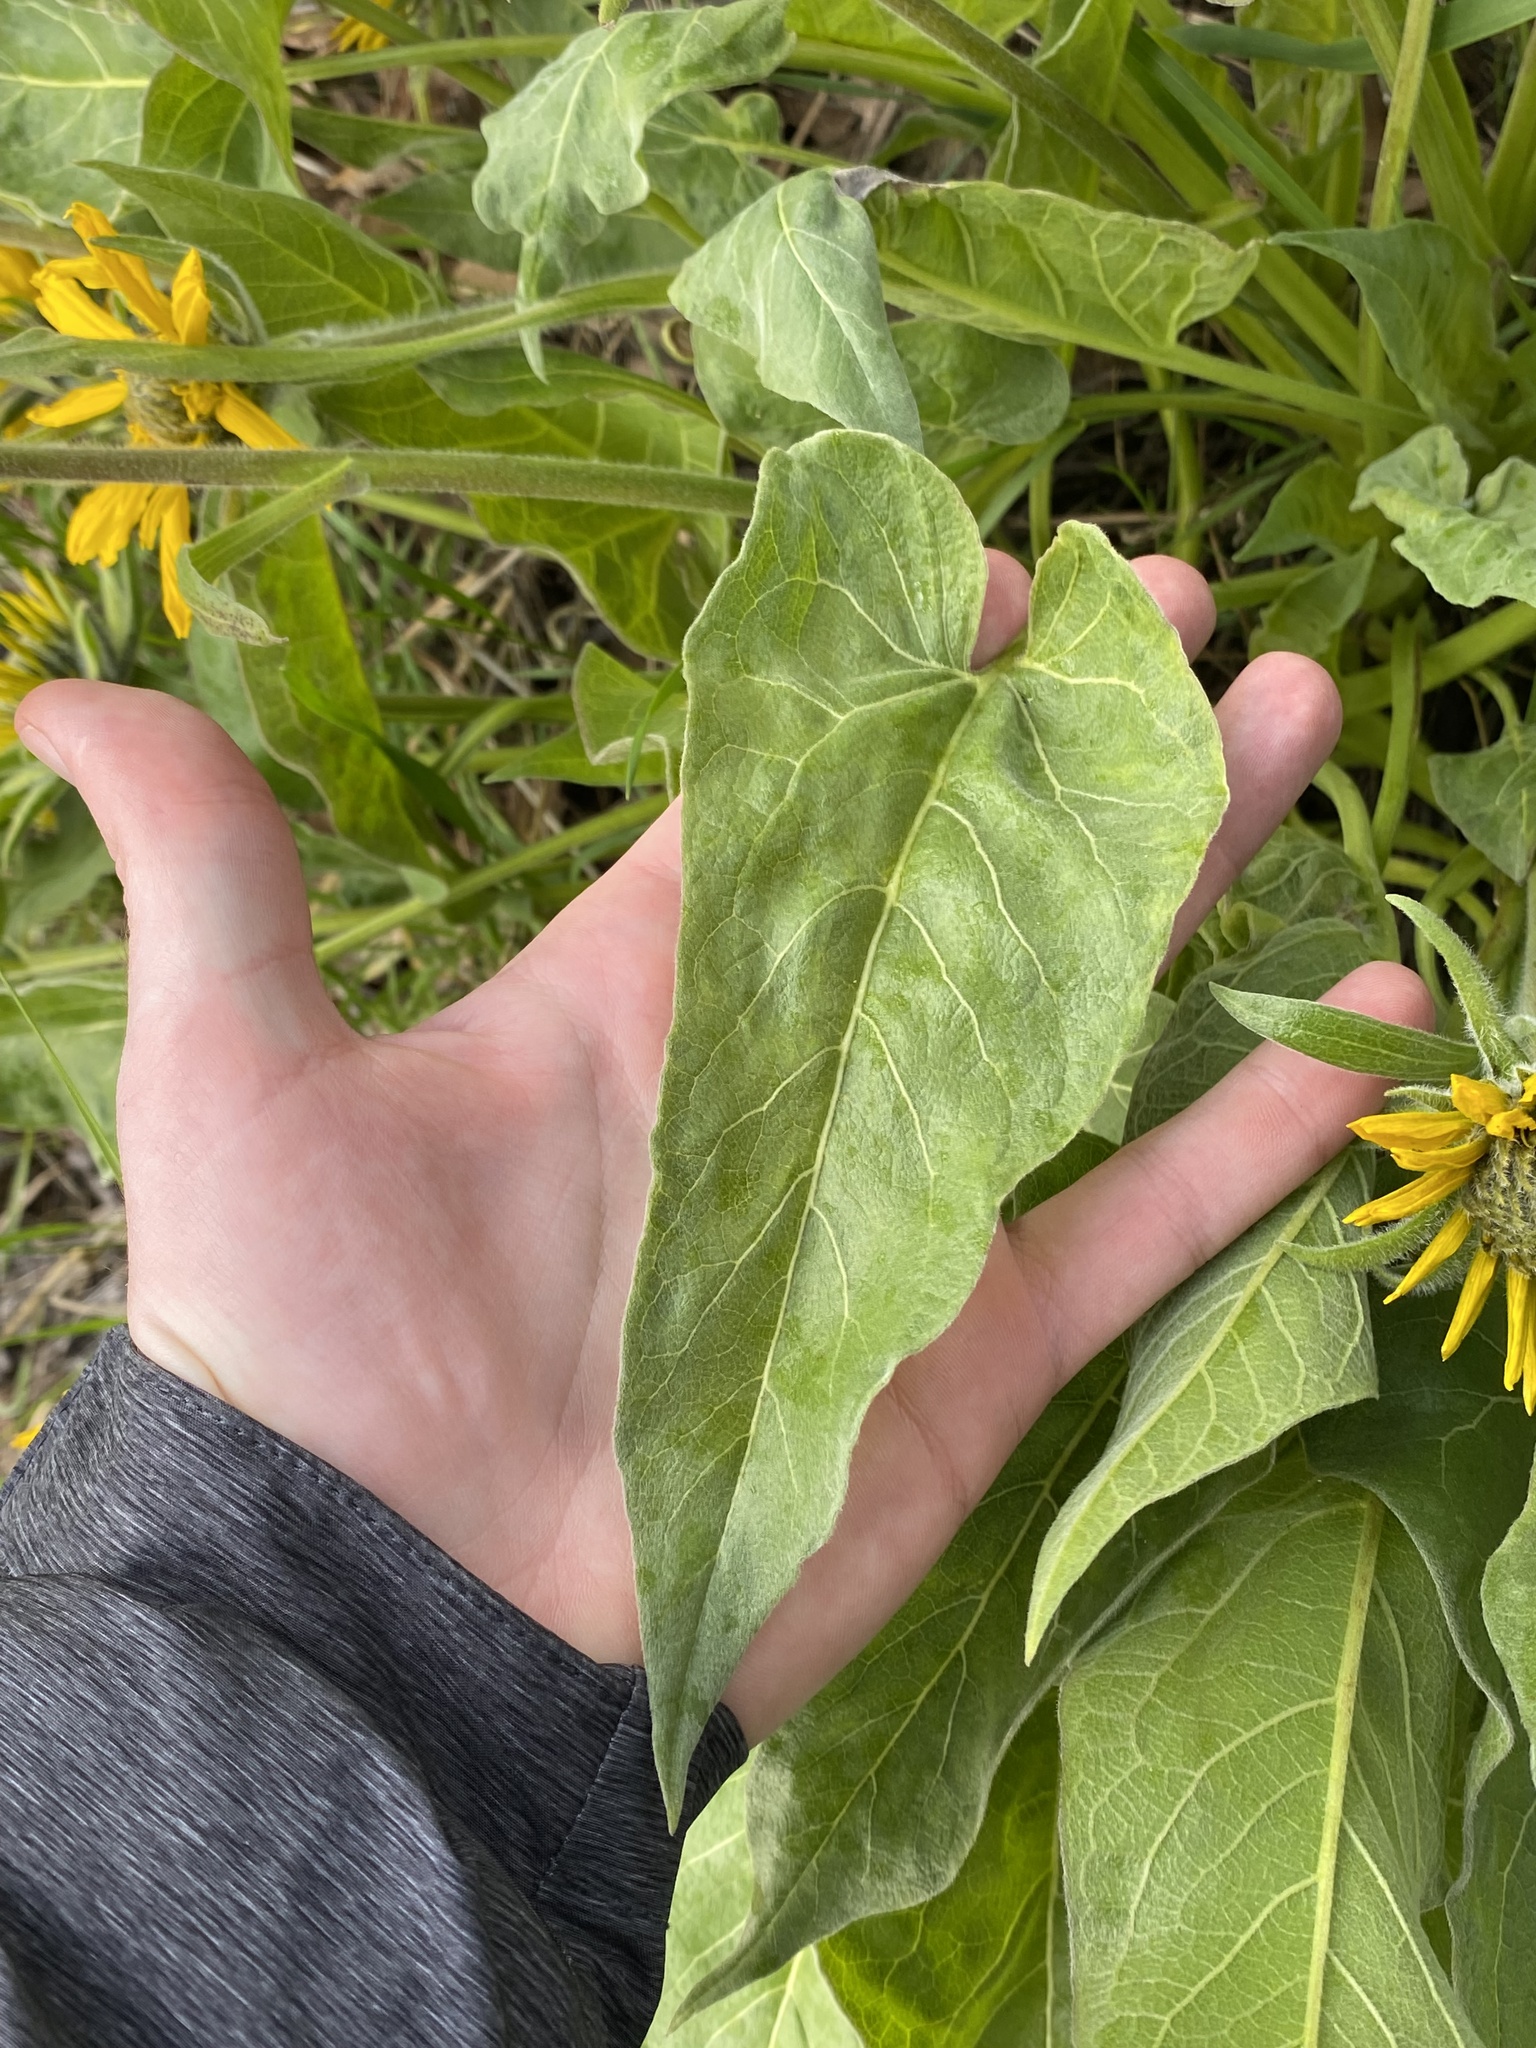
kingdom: Plantae
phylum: Tracheophyta
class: Magnoliopsida
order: Asterales
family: Asteraceae
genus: Wyethia
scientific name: Wyethia sagittata
